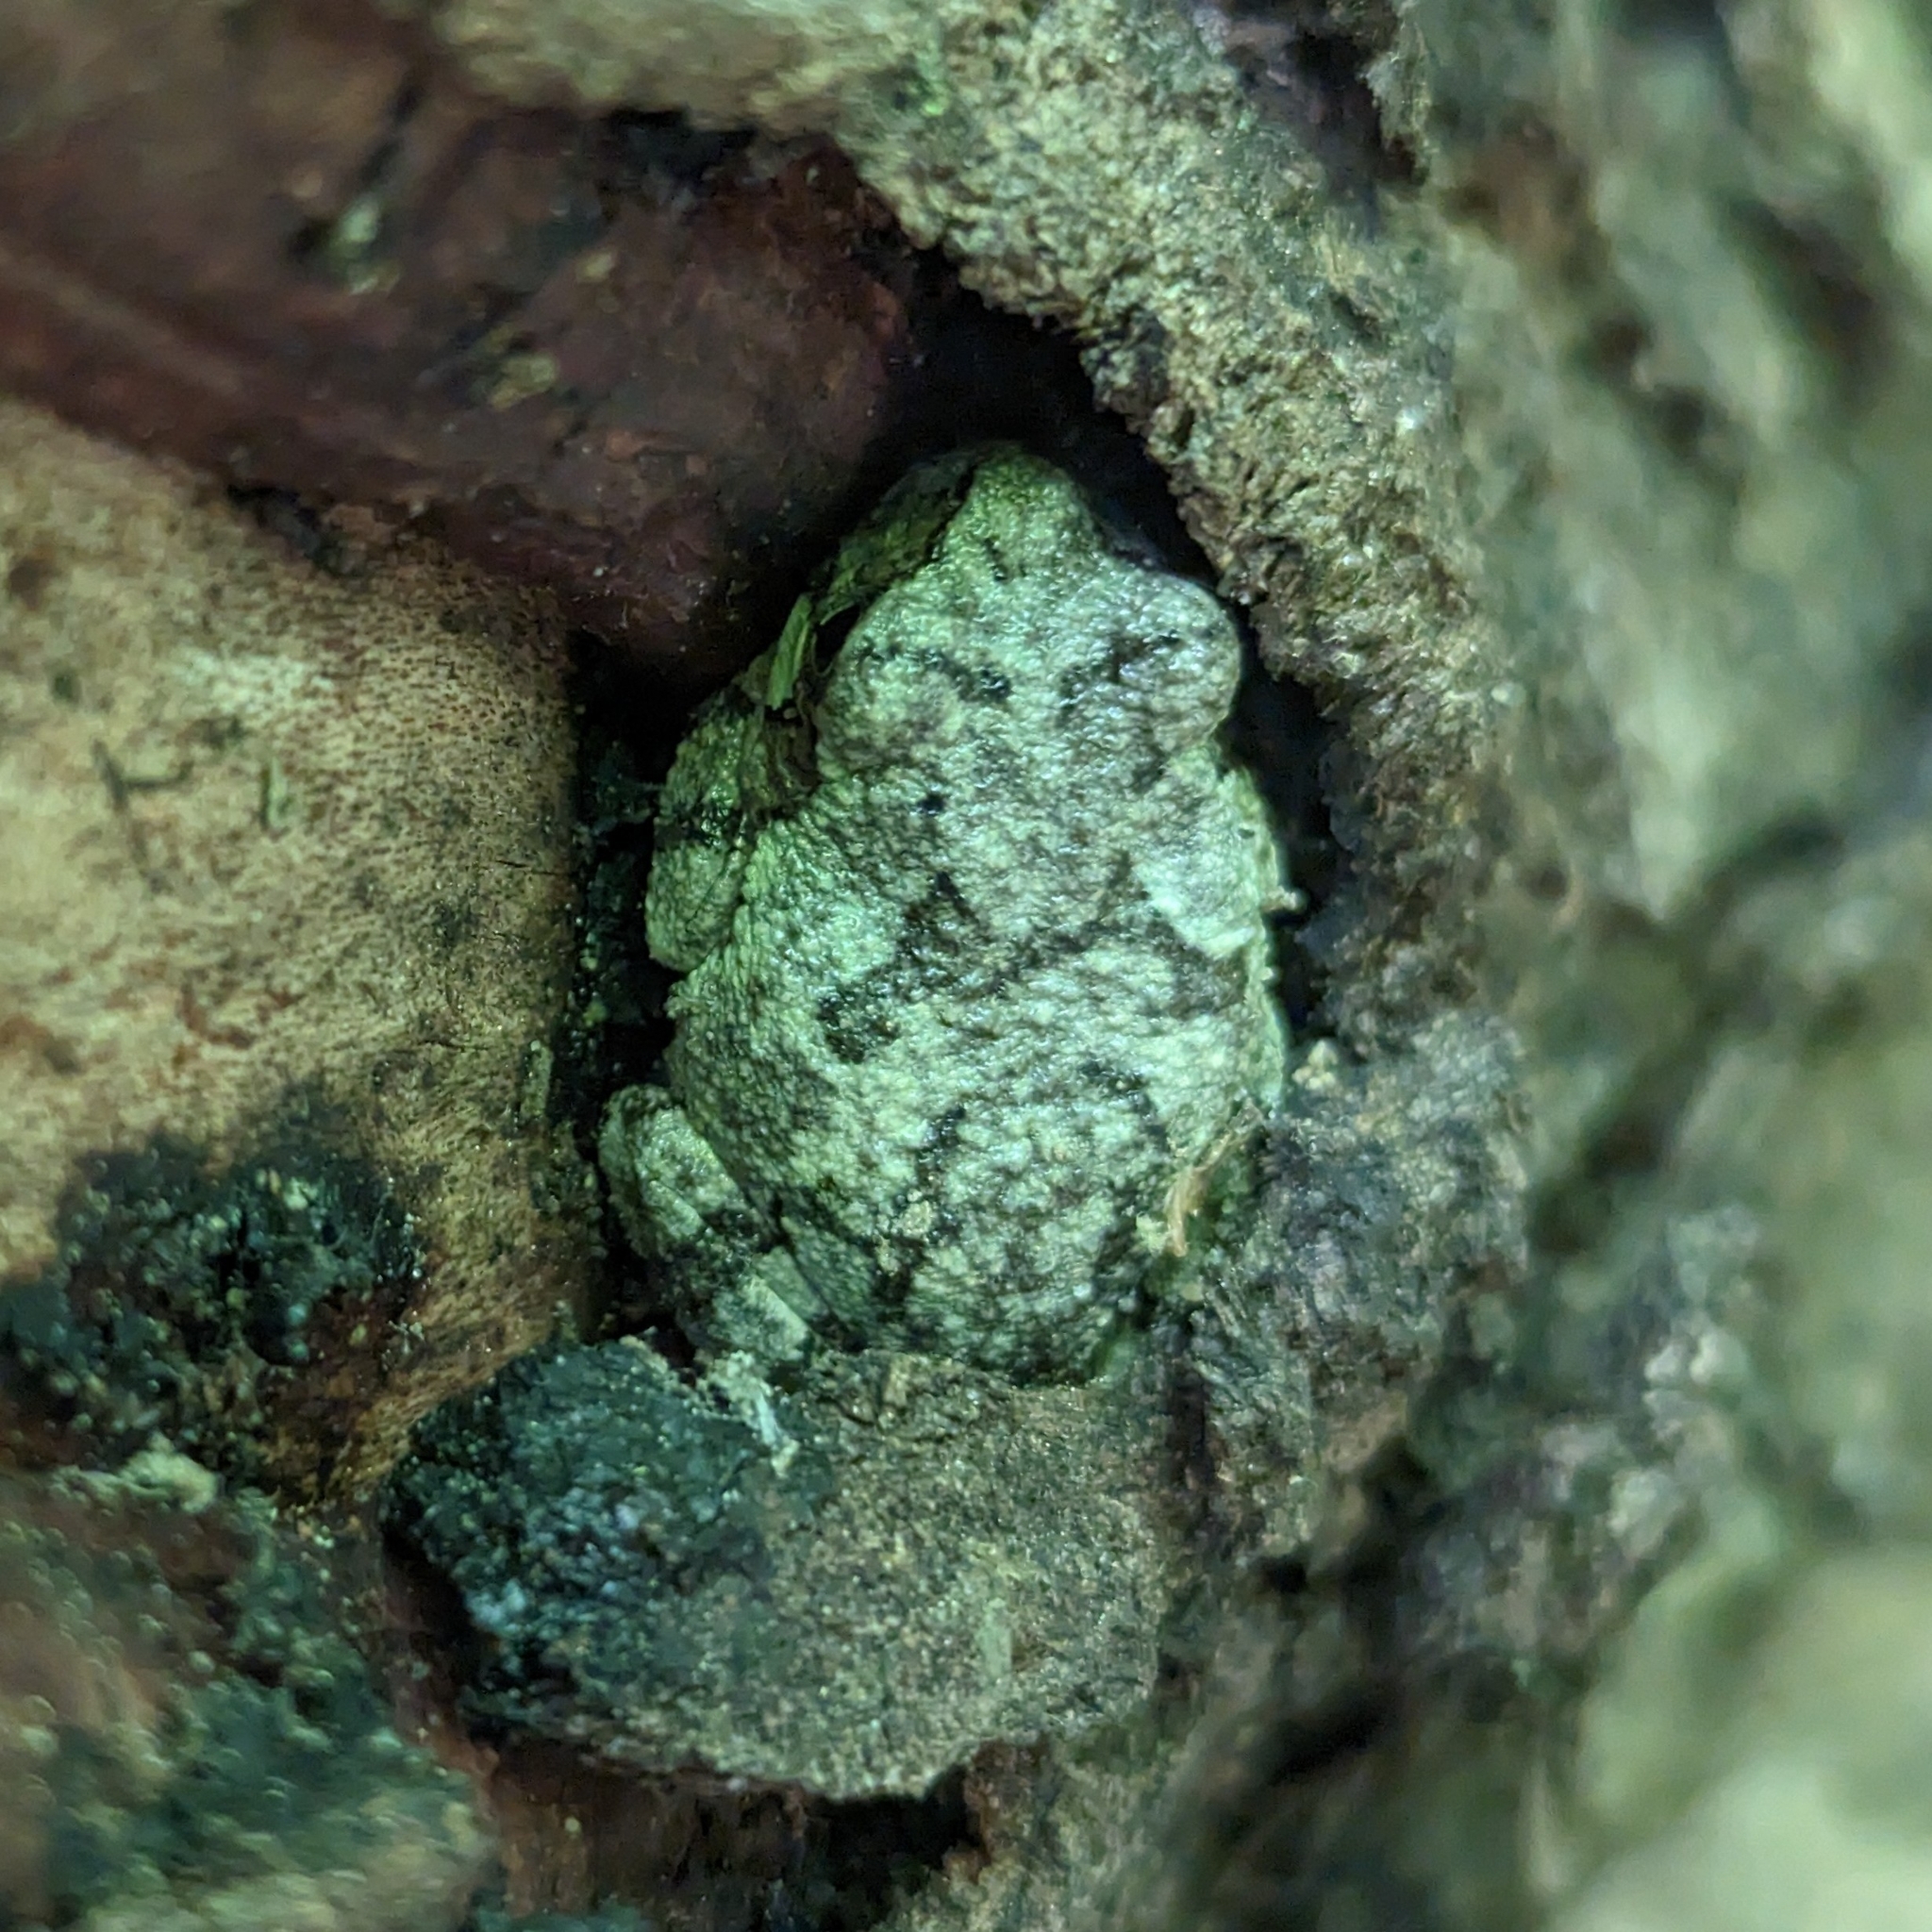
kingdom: Animalia
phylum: Chordata
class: Amphibia
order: Anura
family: Hylidae
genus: Hyla
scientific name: Hyla
